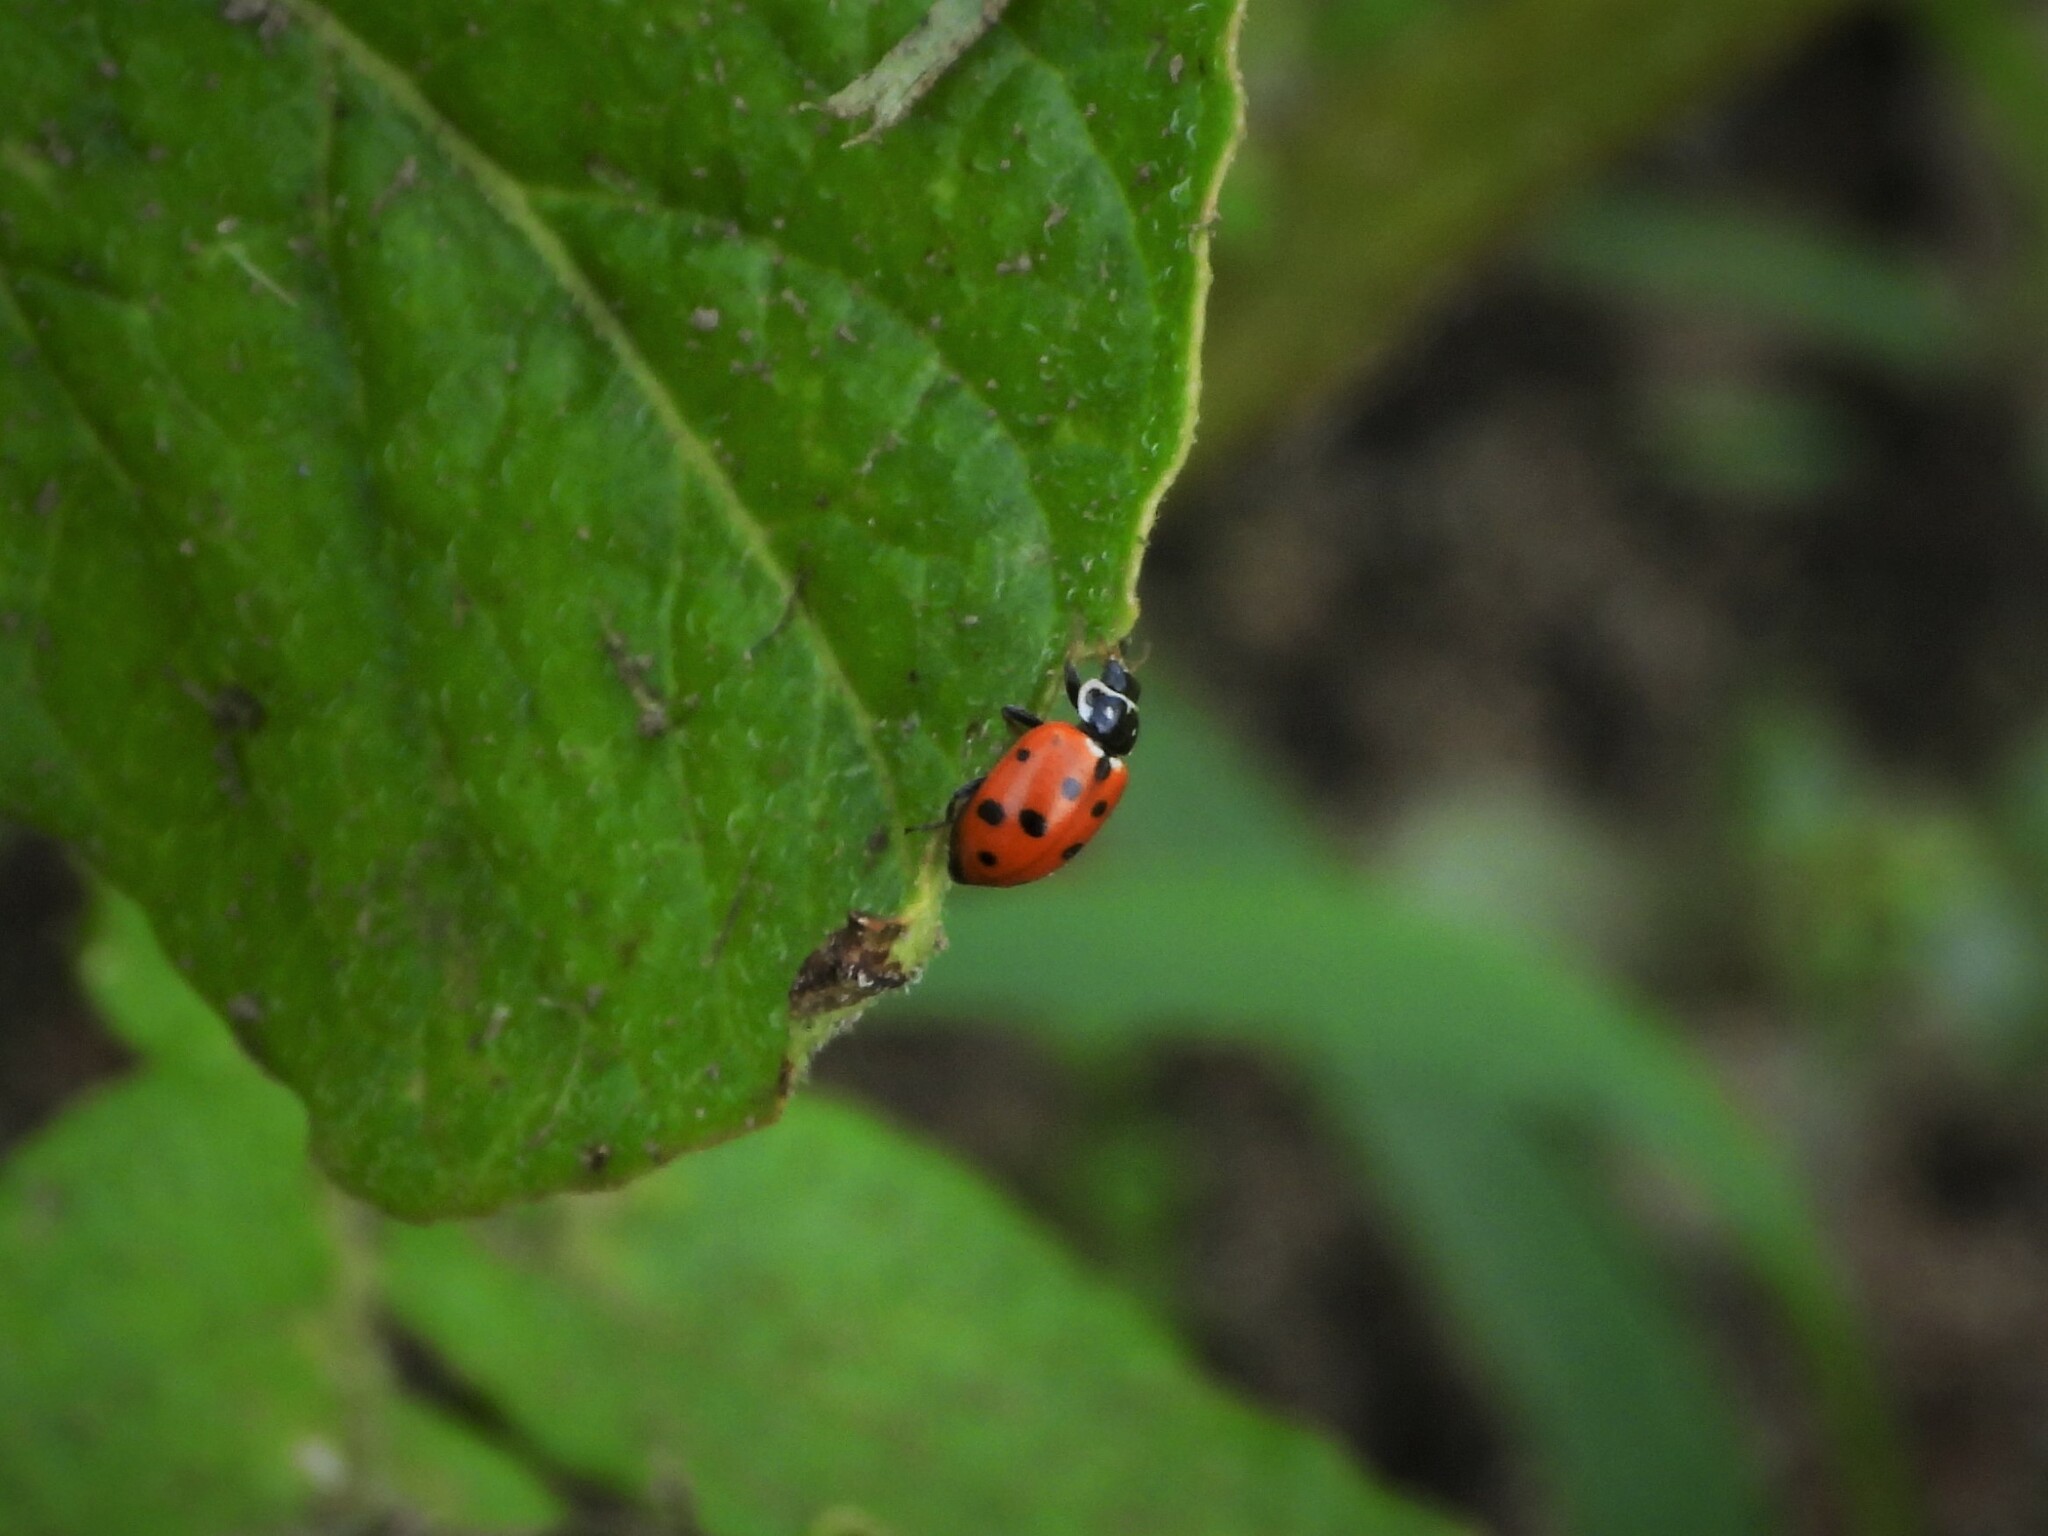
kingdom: Animalia
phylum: Arthropoda
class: Insecta
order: Coleoptera
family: Coccinellidae
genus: Hippodamia
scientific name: Hippodamia variegata
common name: Ladybird beetle
